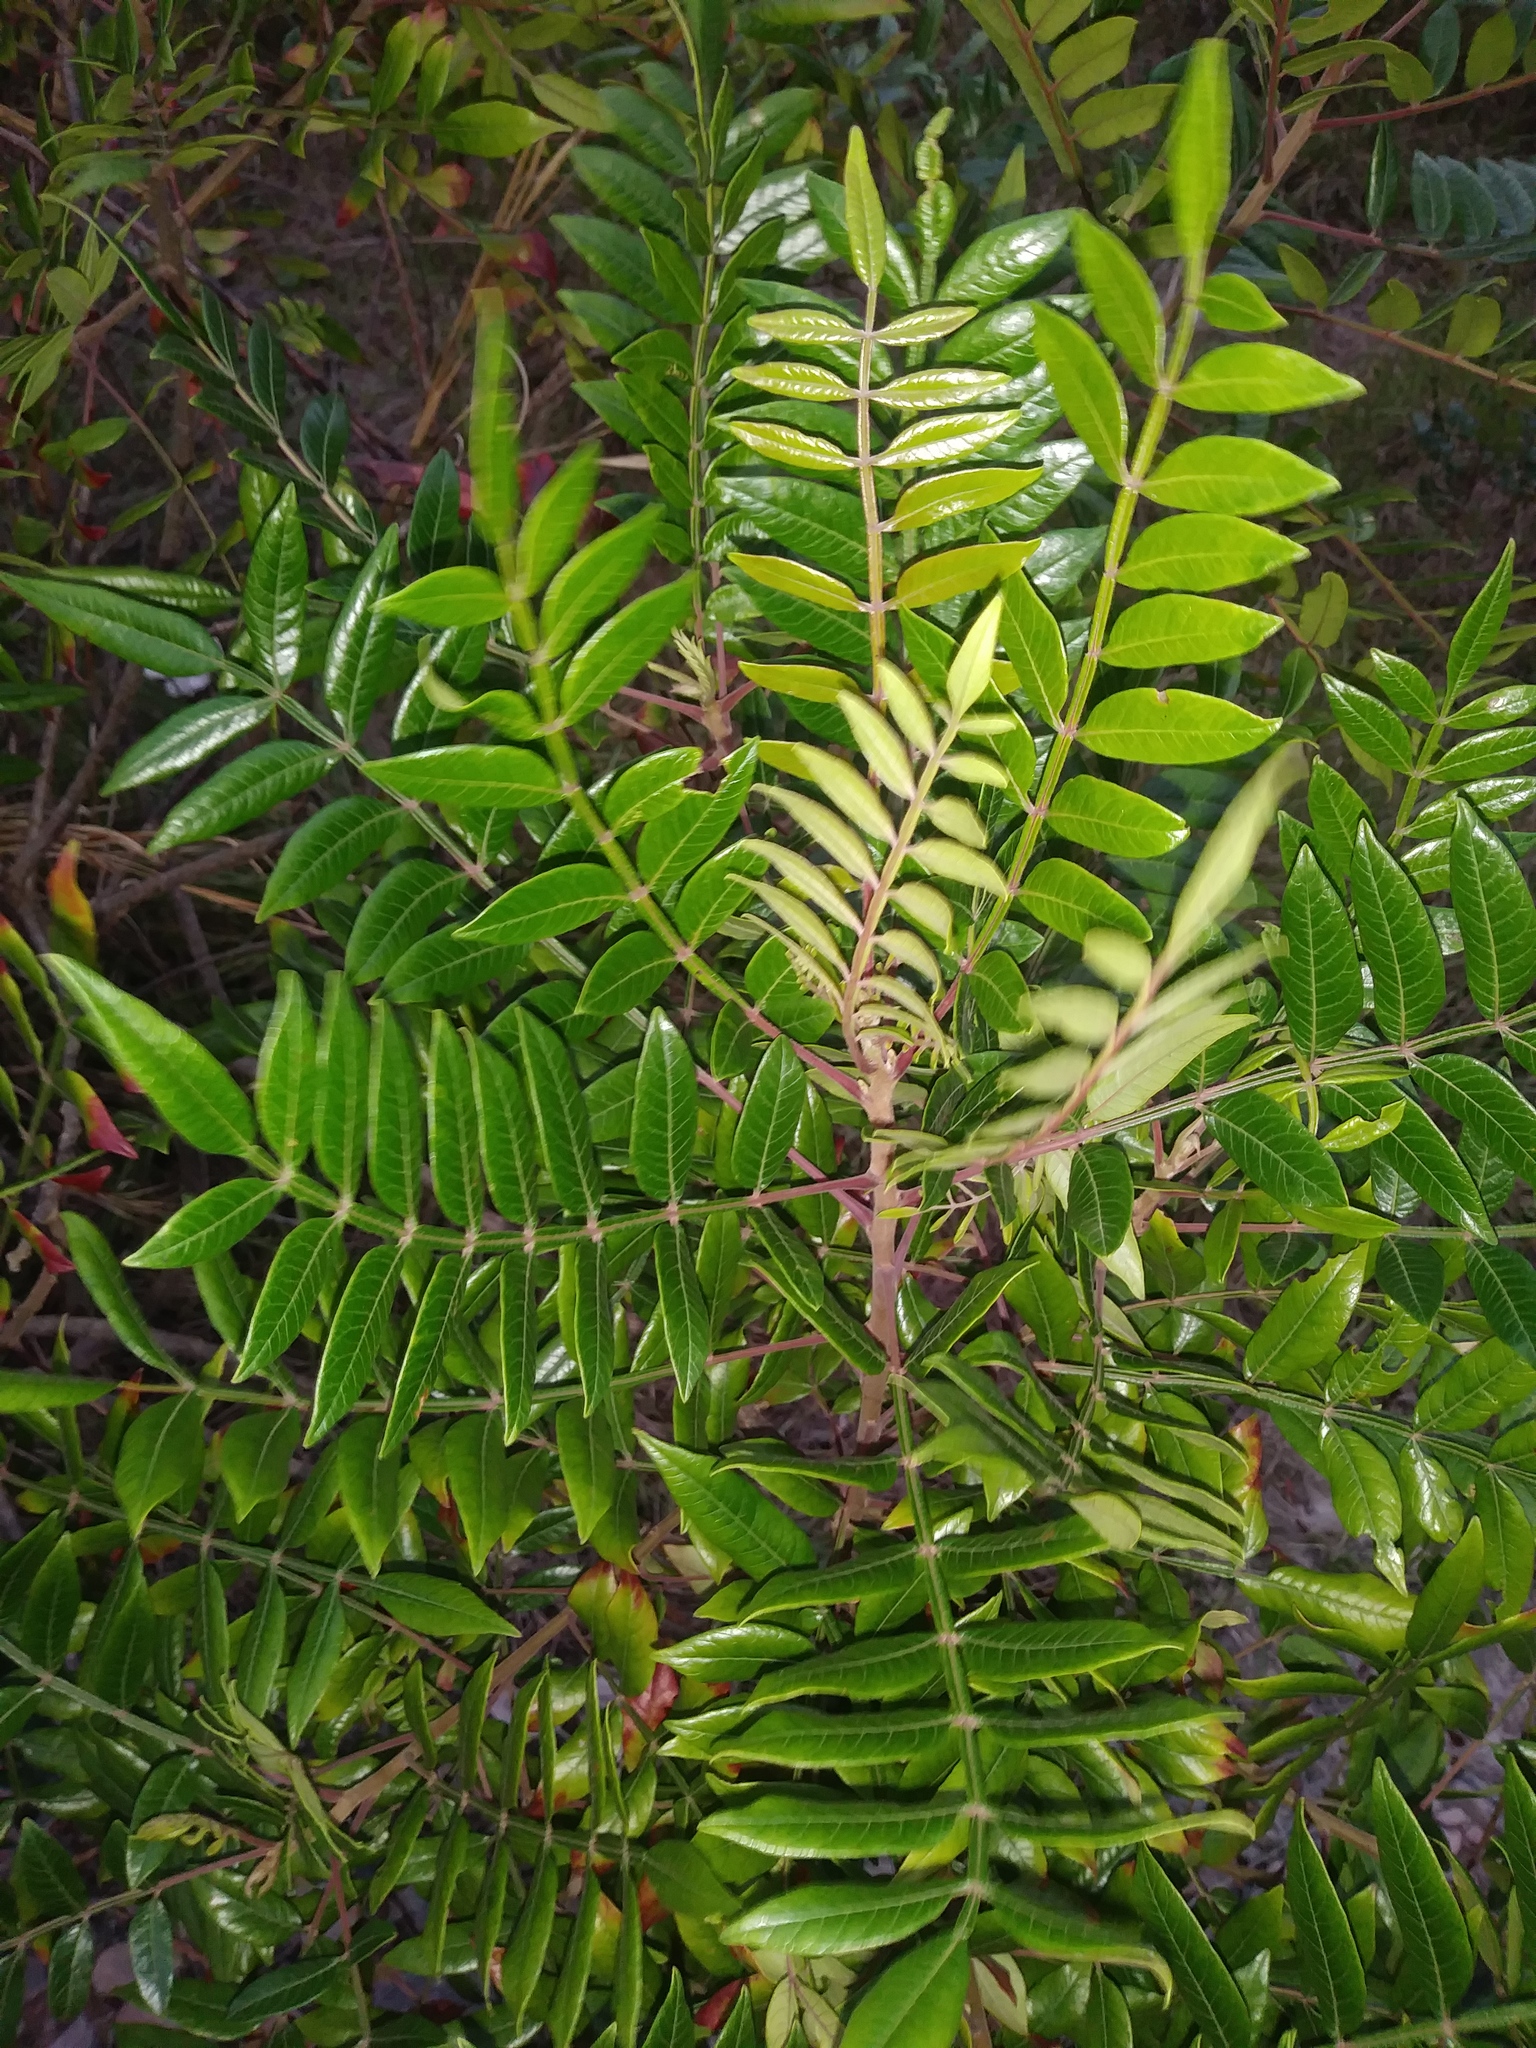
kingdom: Plantae
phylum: Tracheophyta
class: Magnoliopsida
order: Sapindales
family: Anacardiaceae
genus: Rhus
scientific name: Rhus copallina
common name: Shining sumac
